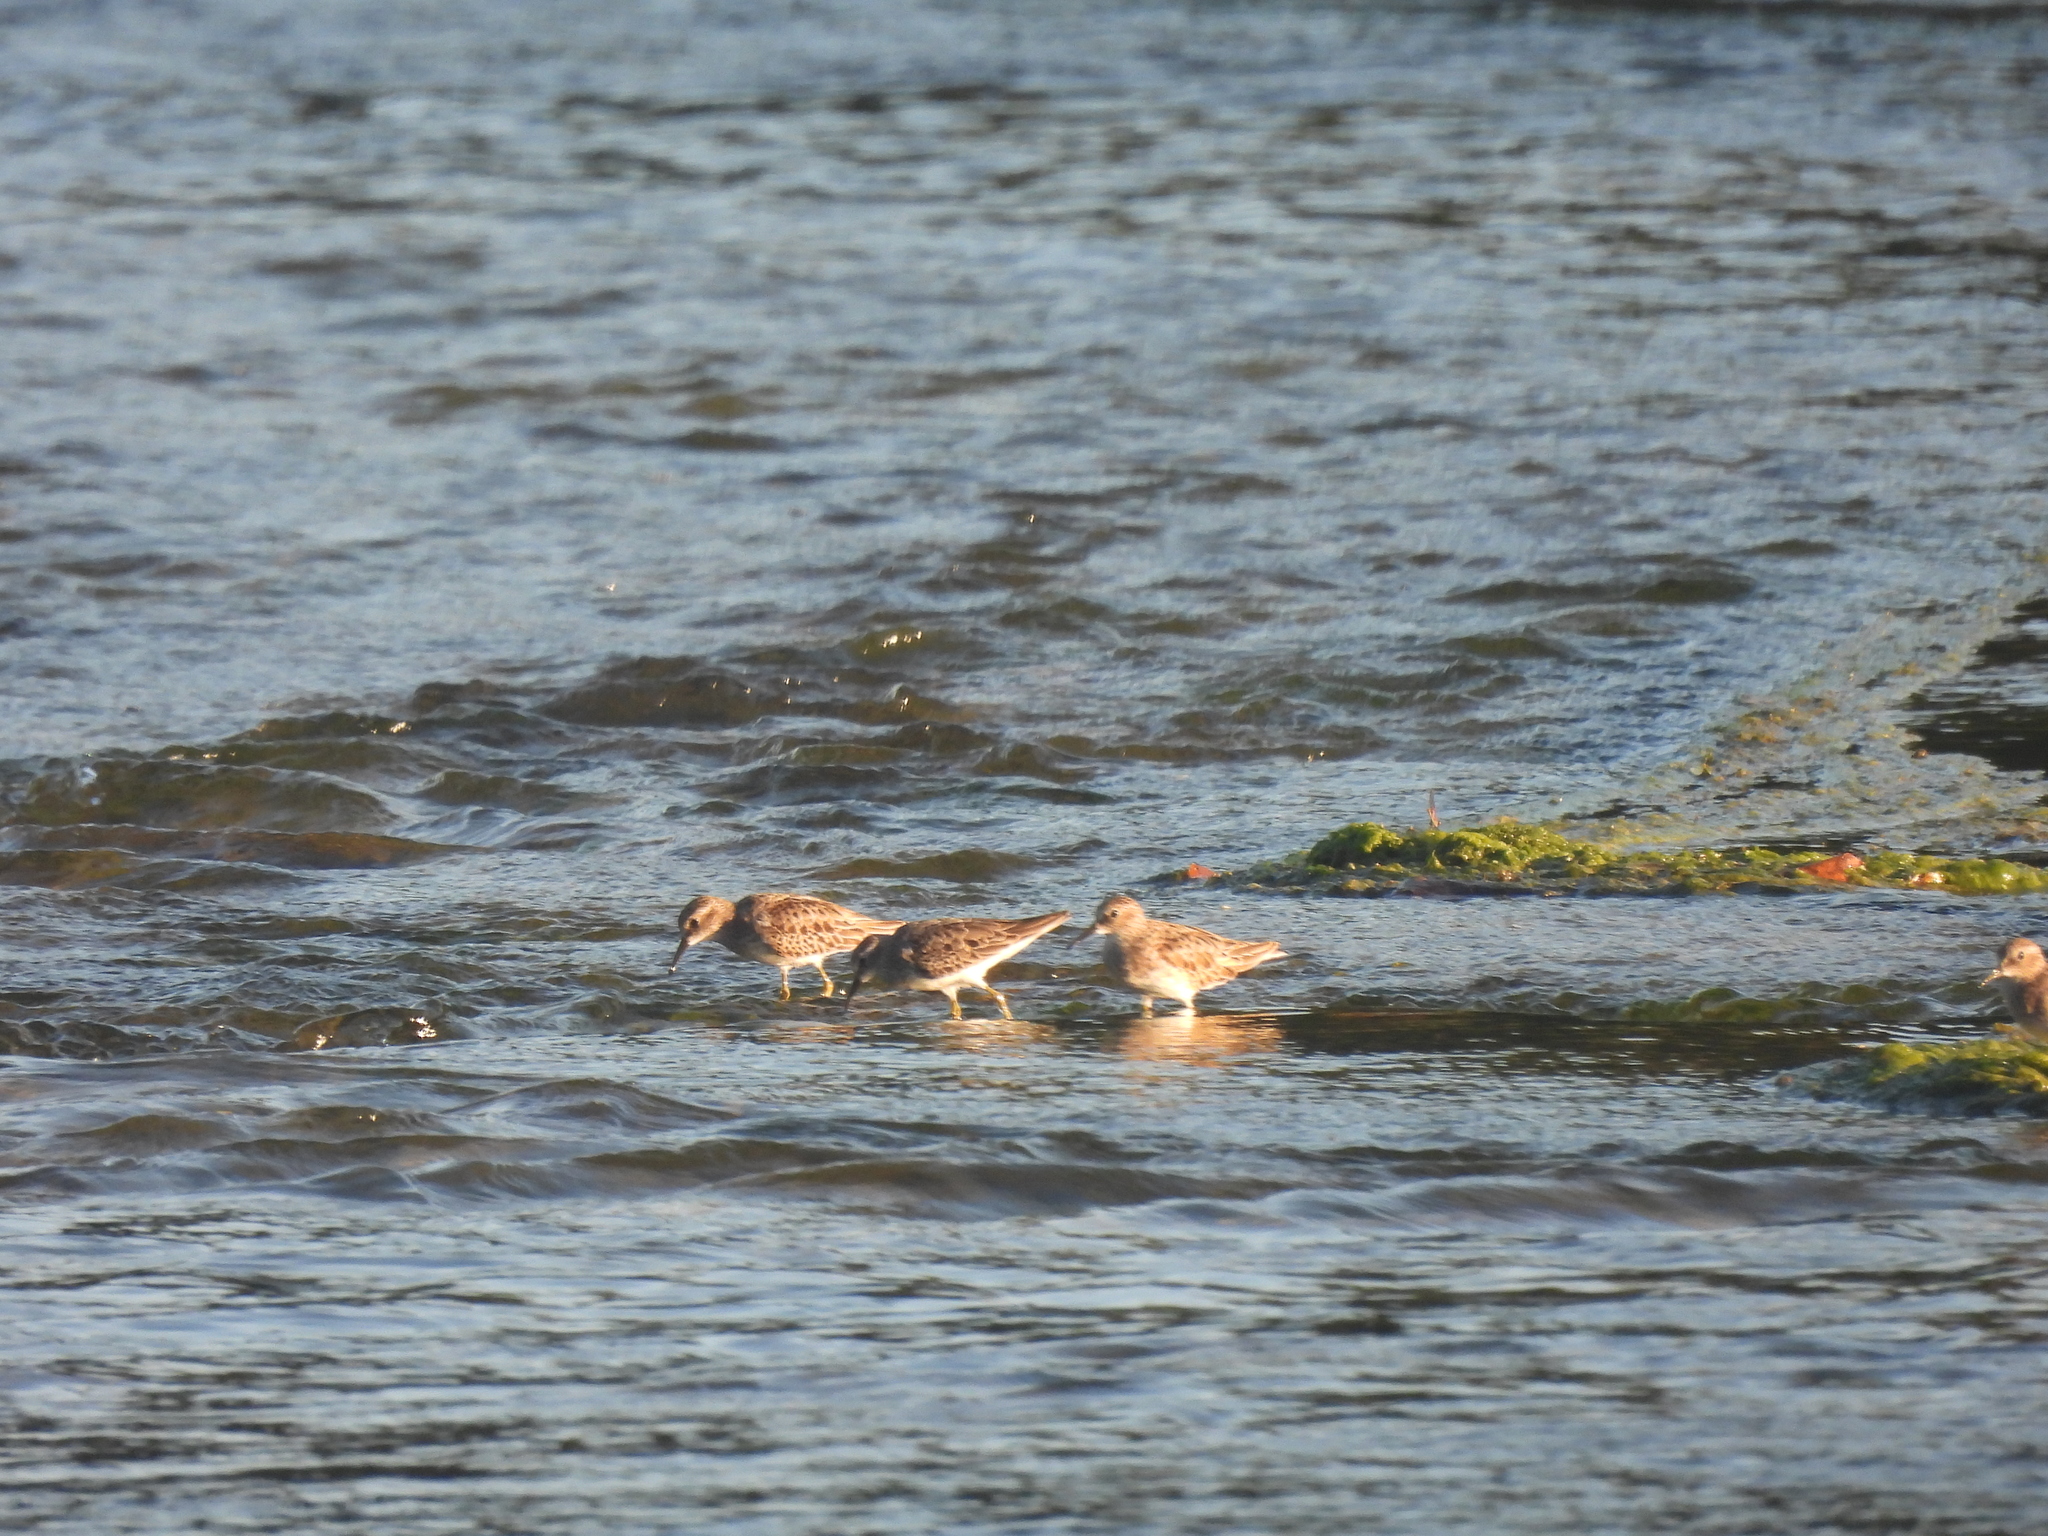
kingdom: Animalia
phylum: Chordata
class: Aves
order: Charadriiformes
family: Scolopacidae
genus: Calidris
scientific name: Calidris minutilla
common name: Least sandpiper
